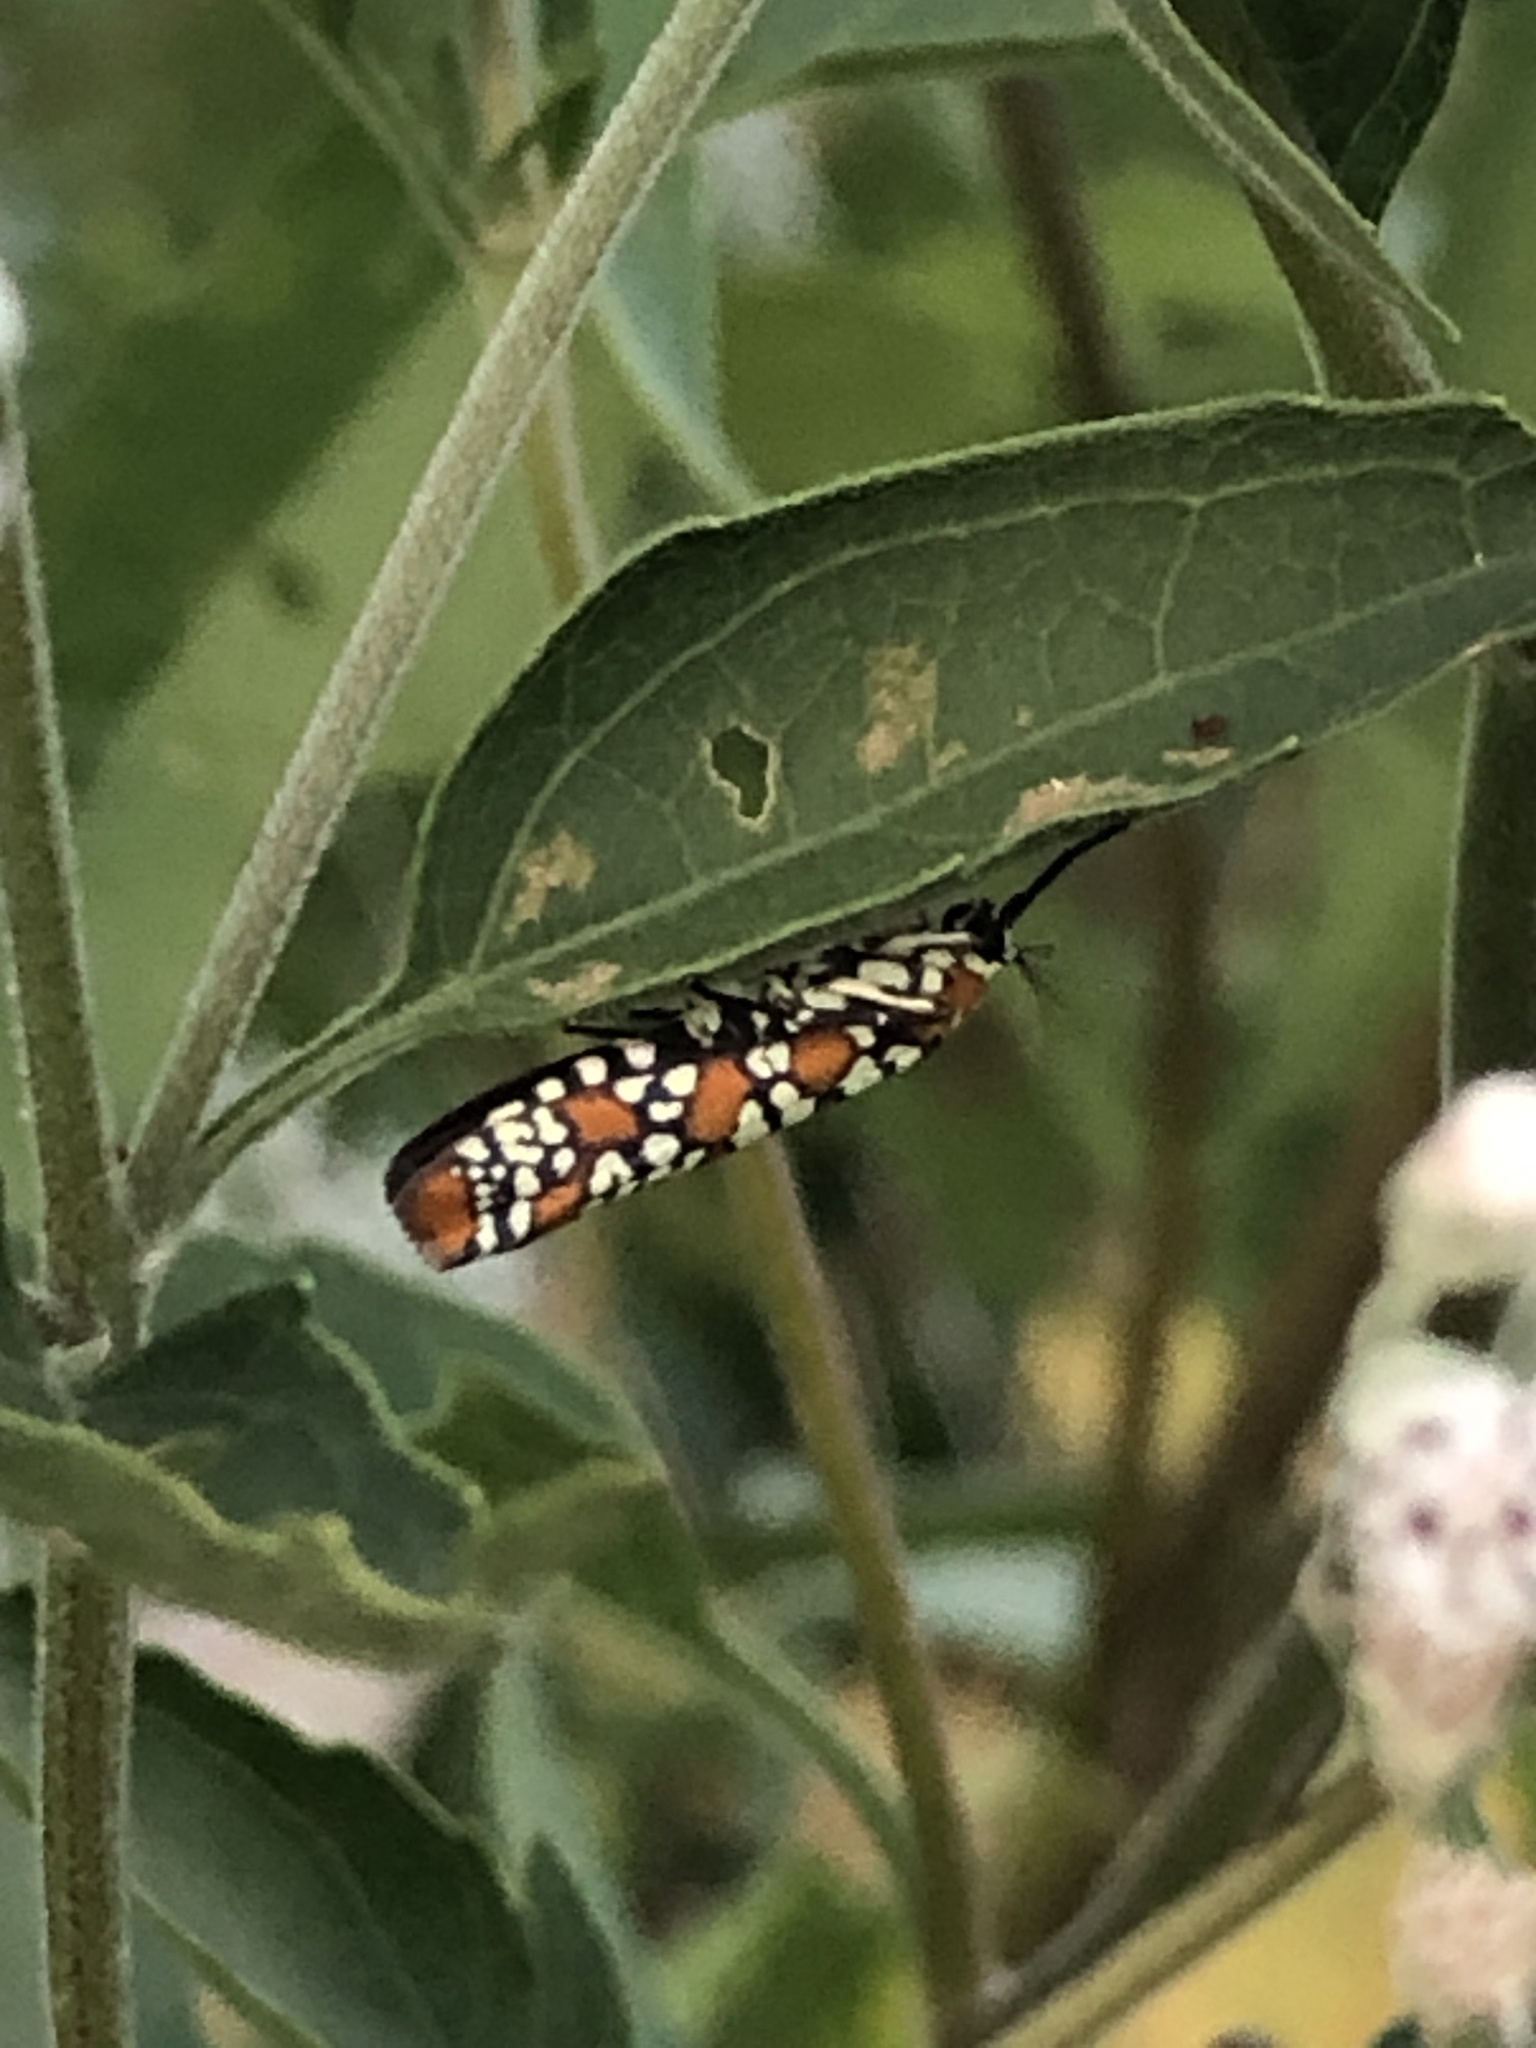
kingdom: Animalia
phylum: Arthropoda
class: Insecta
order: Lepidoptera
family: Attevidae
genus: Atteva
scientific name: Atteva punctella
